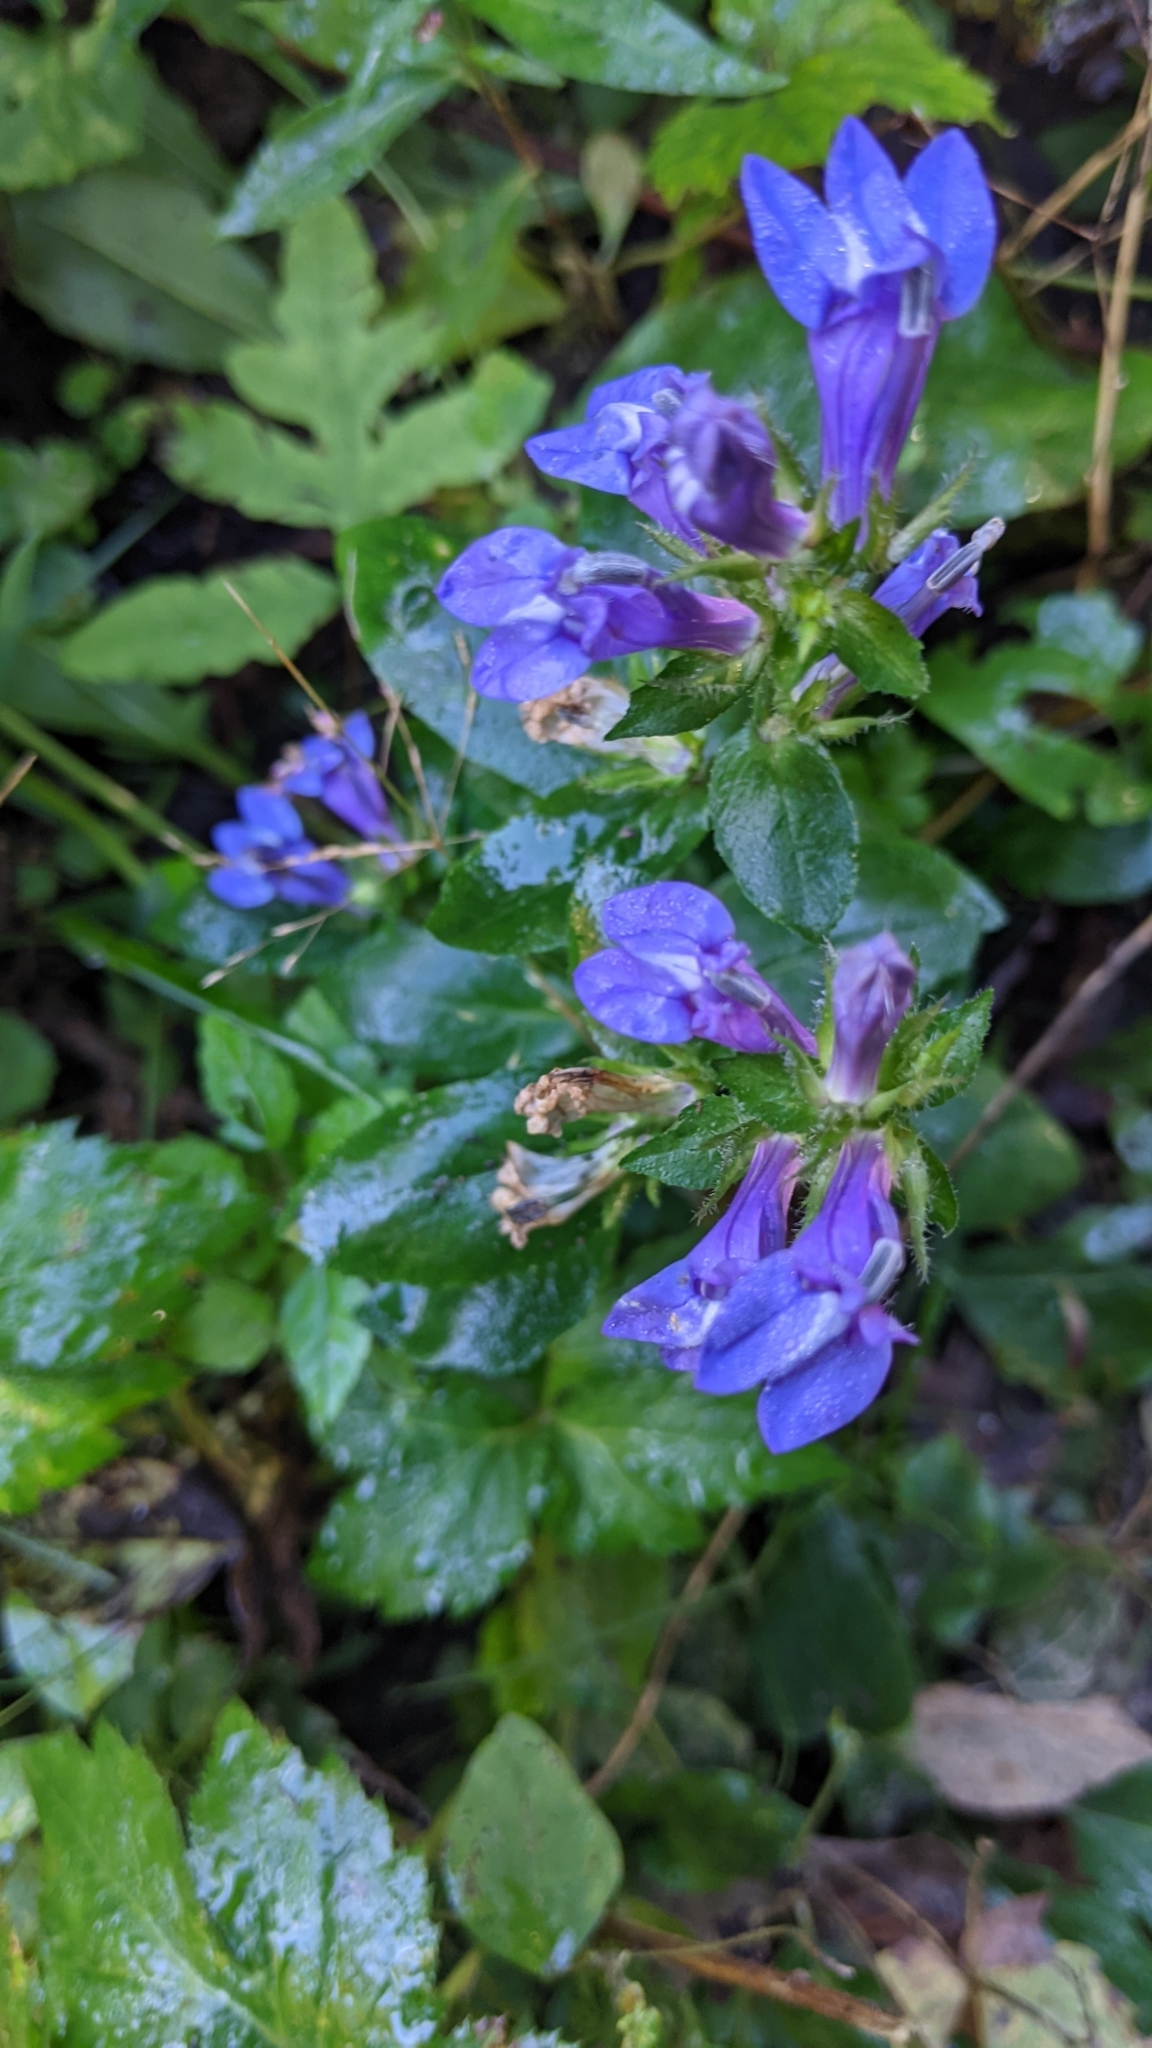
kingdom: Plantae
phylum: Tracheophyta
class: Magnoliopsida
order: Asterales
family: Campanulaceae
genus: Lobelia
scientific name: Lobelia siphilitica
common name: Great lobelia
